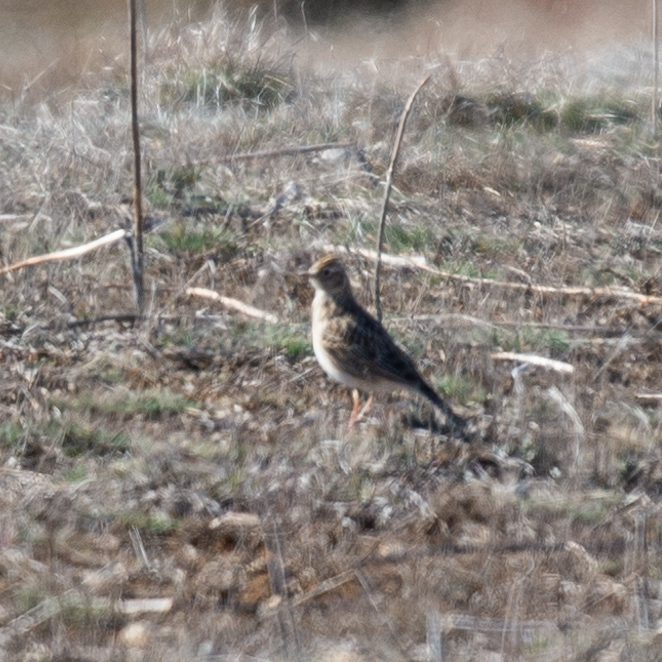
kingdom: Animalia
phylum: Chordata
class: Aves
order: Passeriformes
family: Alaudidae
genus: Alauda
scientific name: Alauda arvensis
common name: Eurasian skylark
